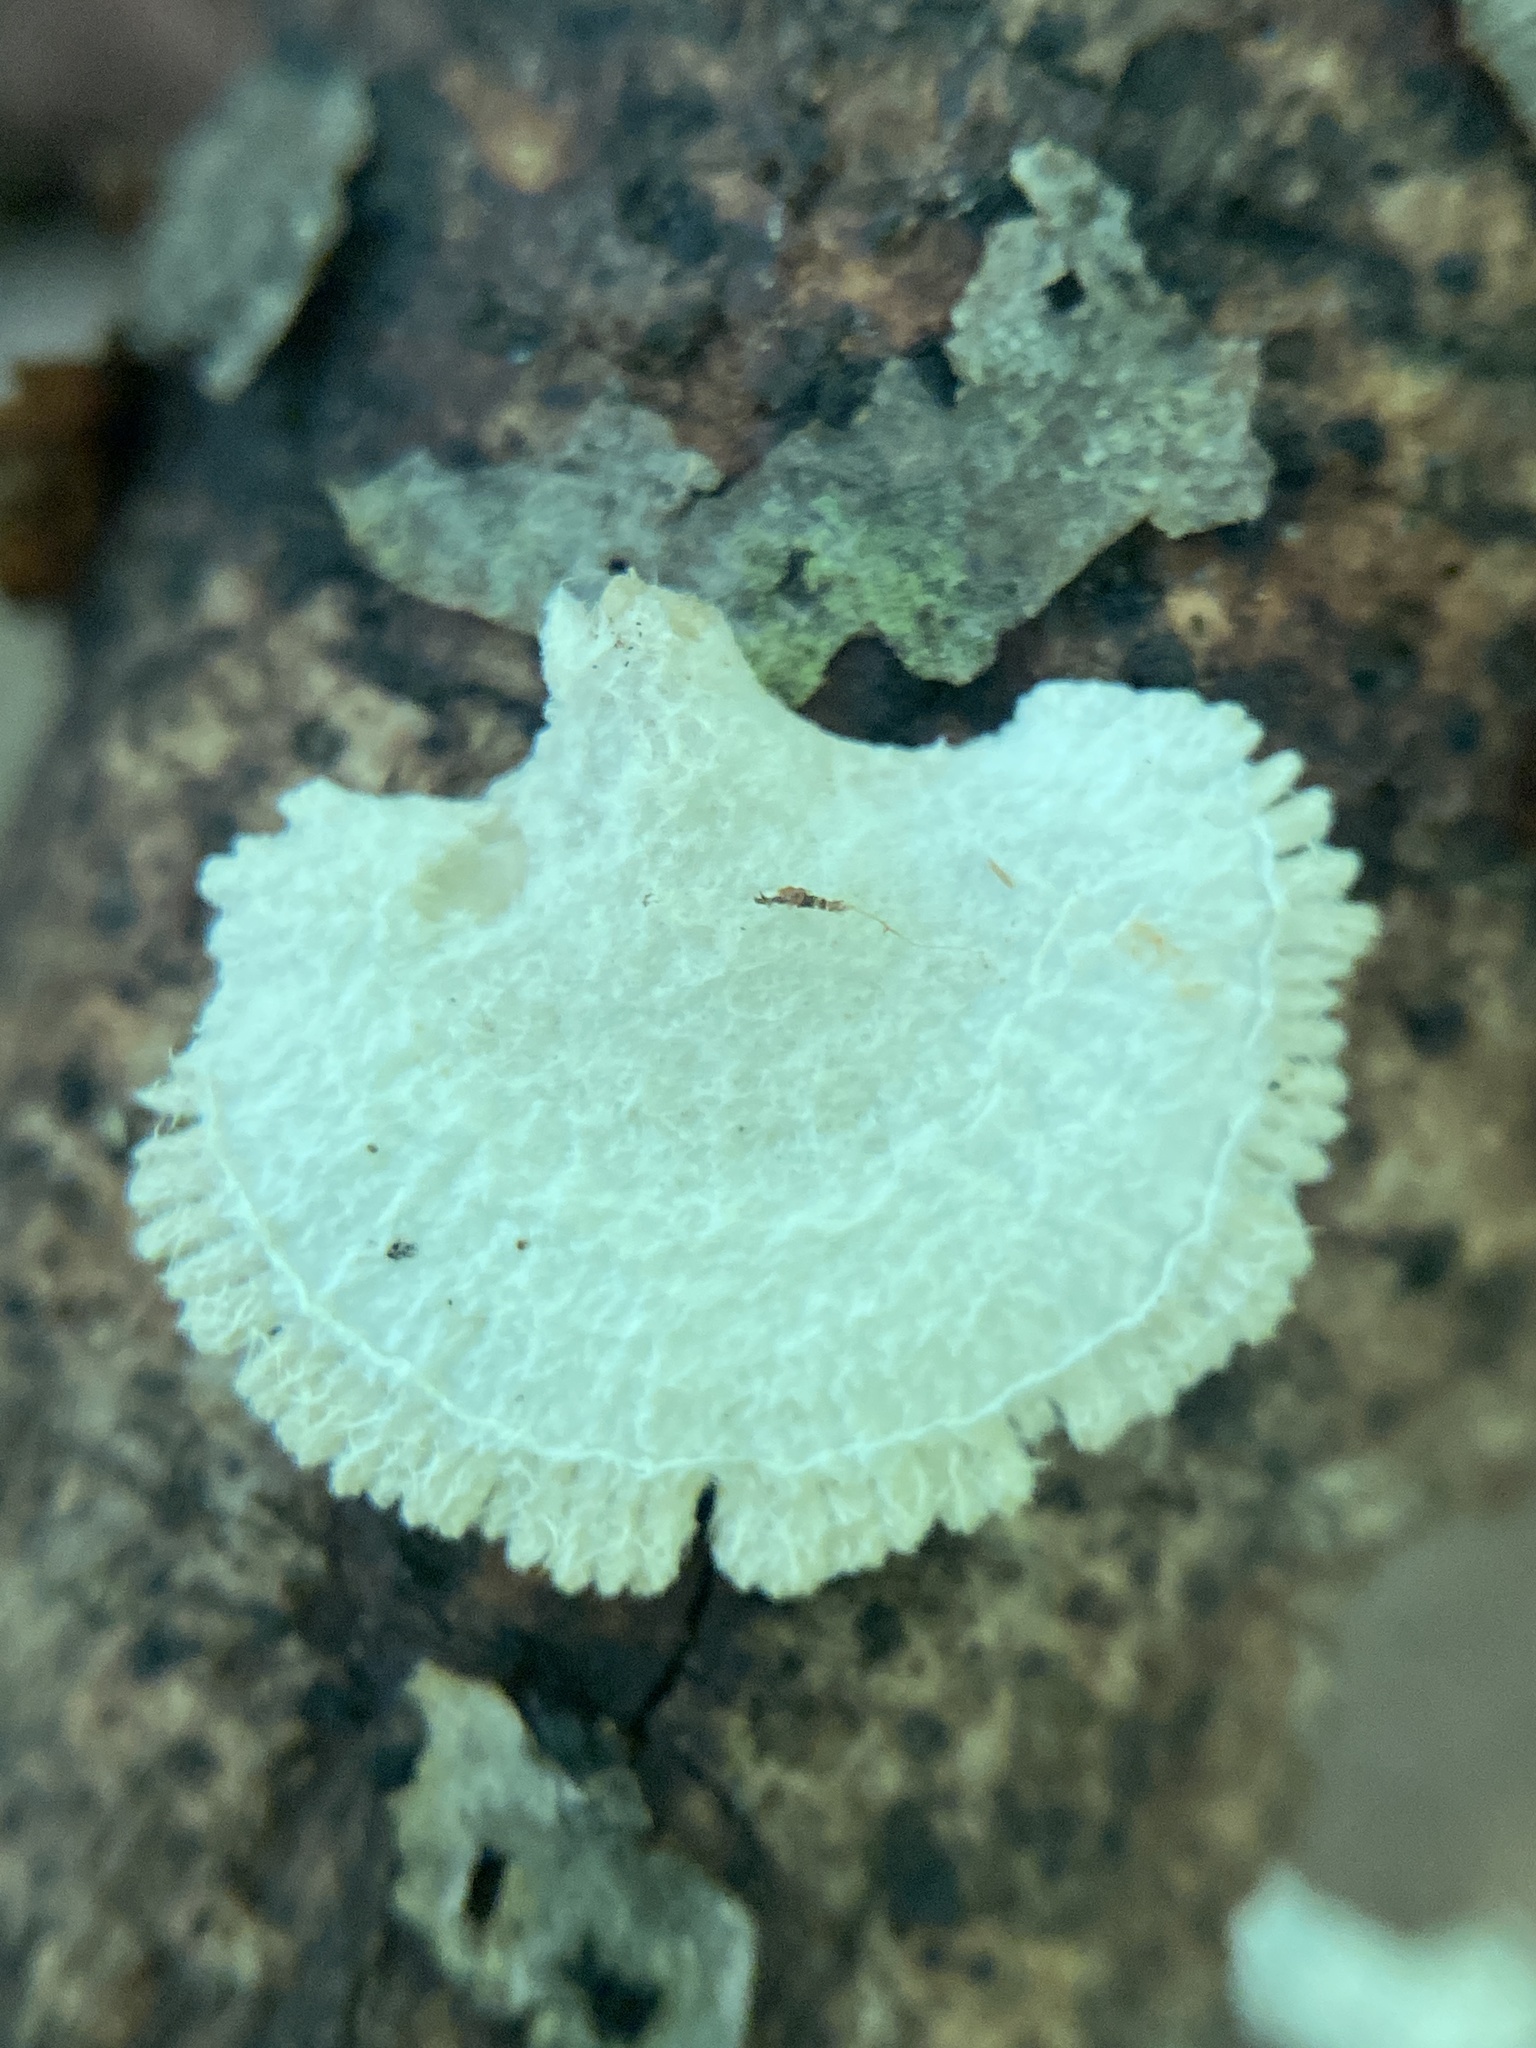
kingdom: Fungi
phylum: Basidiomycota
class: Agaricomycetes
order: Agaricales
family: Schizophyllaceae
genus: Schizophyllum
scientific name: Schizophyllum commune
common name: Common porecrust
